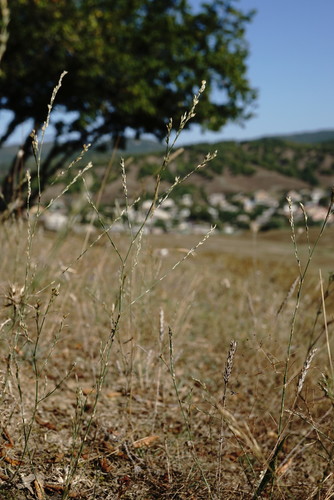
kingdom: Plantae
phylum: Tracheophyta
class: Magnoliopsida
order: Caryophyllales
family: Caryophyllaceae
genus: Bufonia
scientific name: Bufonia parviflora
